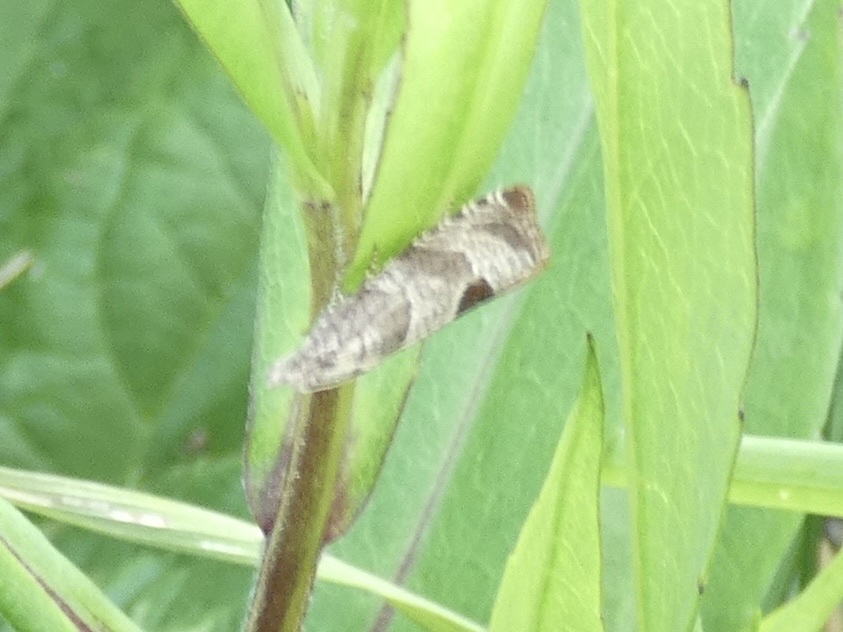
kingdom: Animalia
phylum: Arthropoda
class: Insecta
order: Lepidoptera
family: Tortricidae
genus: Notocelia
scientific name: Notocelia uddmanniana
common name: Bramble shoot moth
